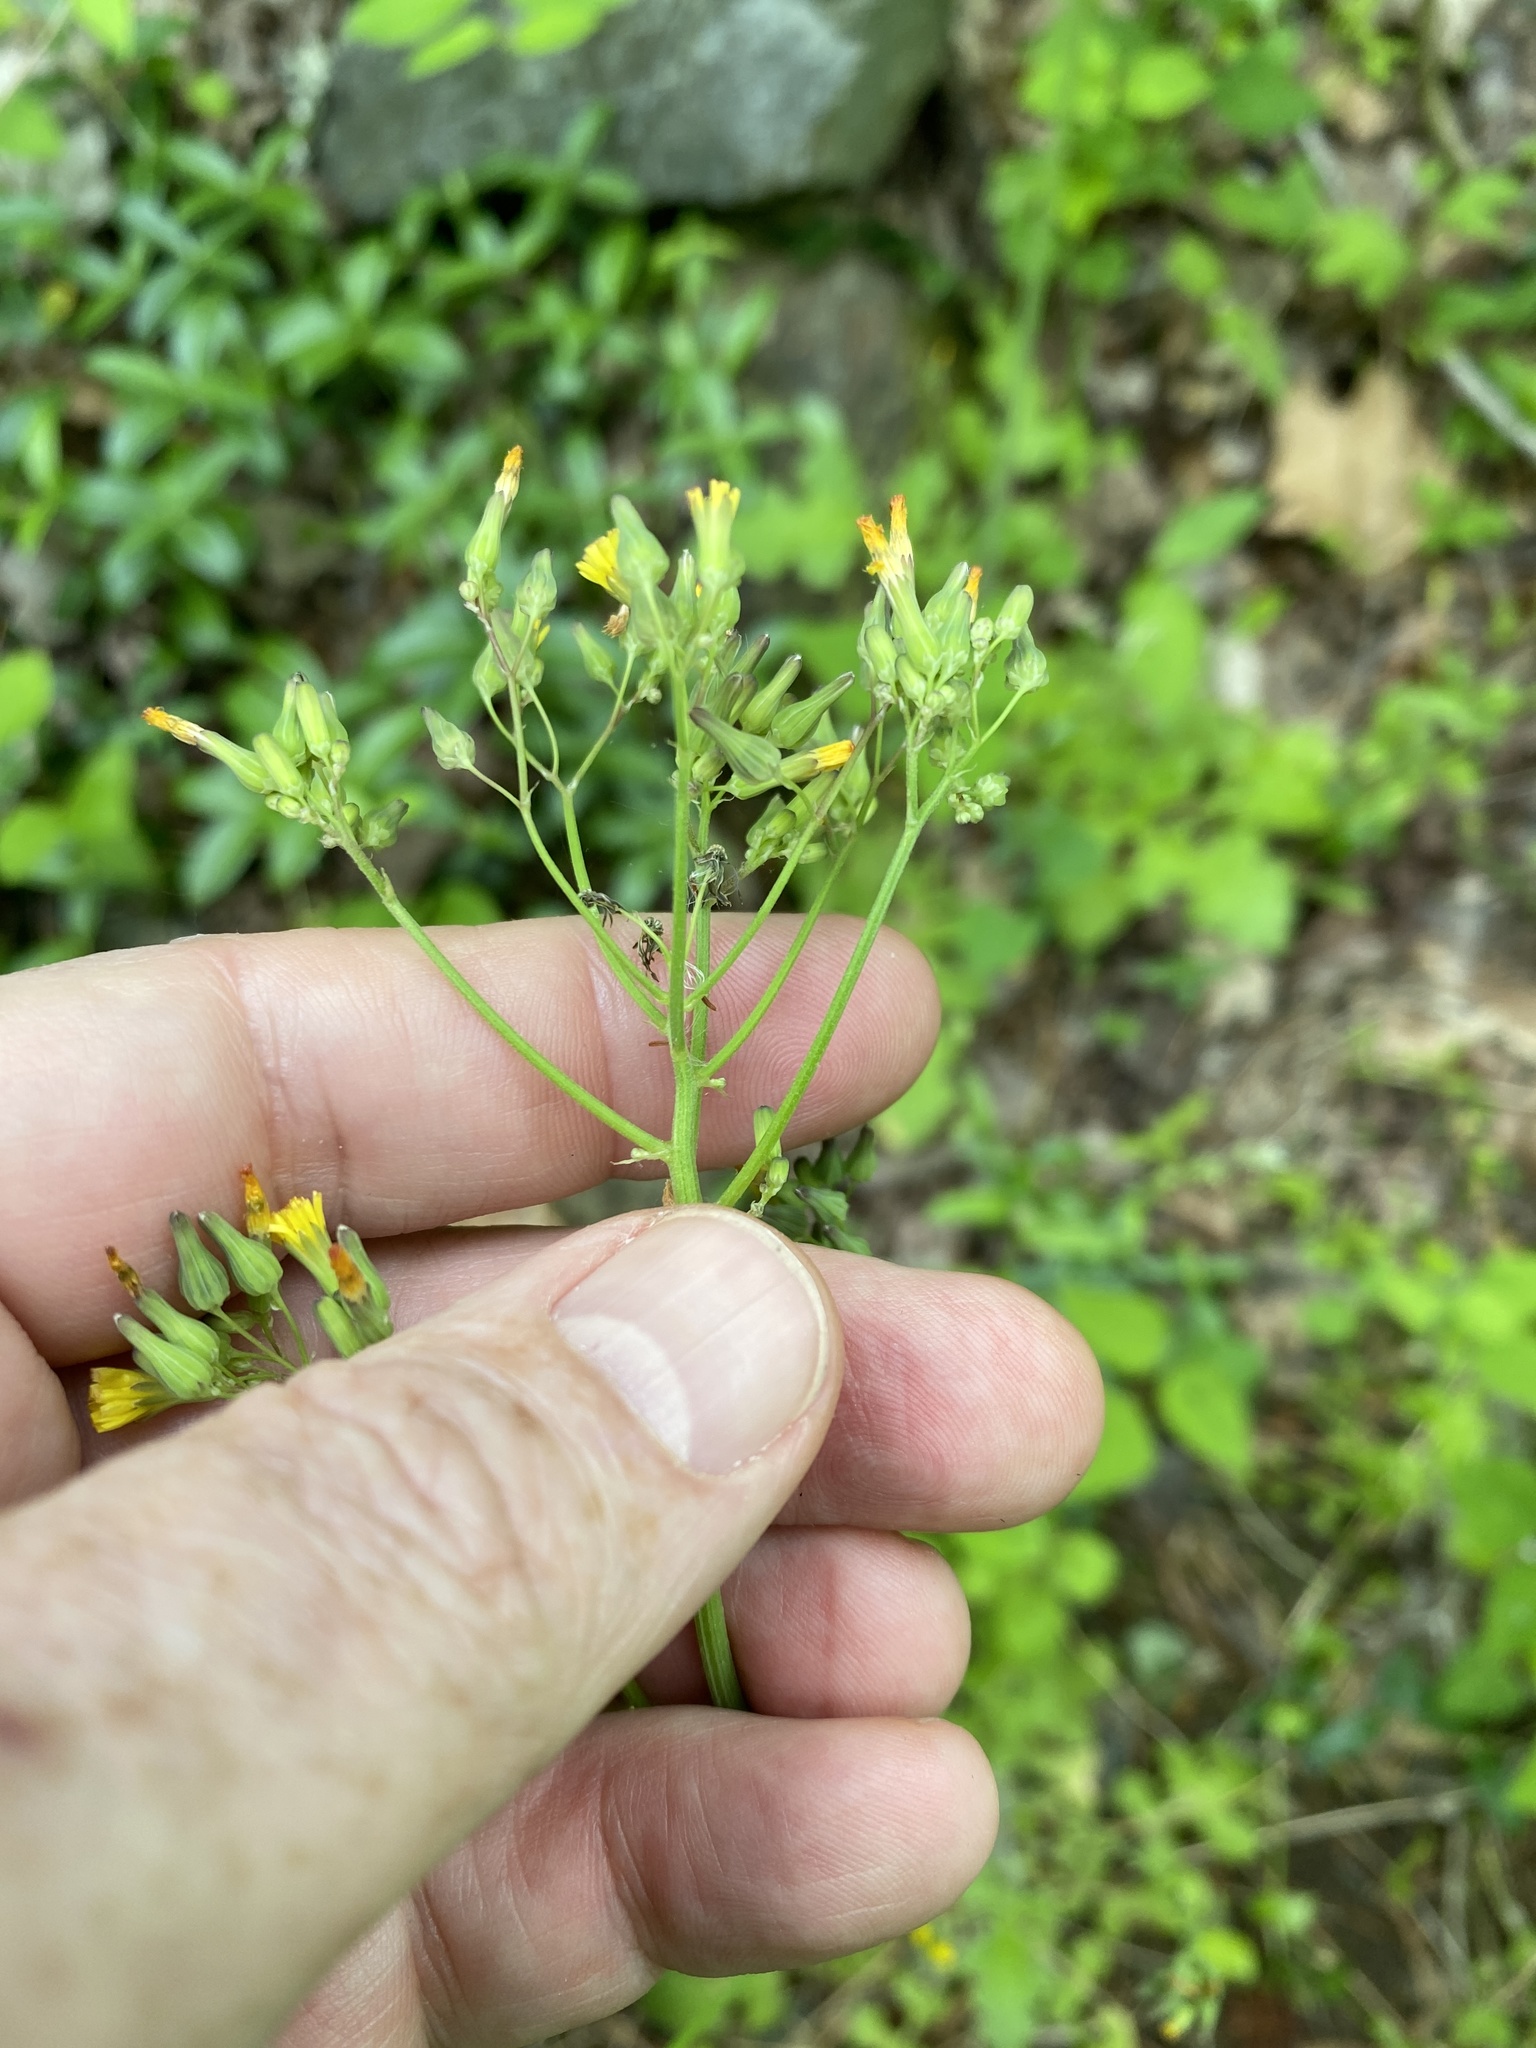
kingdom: Plantae
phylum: Tracheophyta
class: Magnoliopsida
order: Asterales
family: Asteraceae
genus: Youngia
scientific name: Youngia japonica
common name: Oriental false hawksbeard
